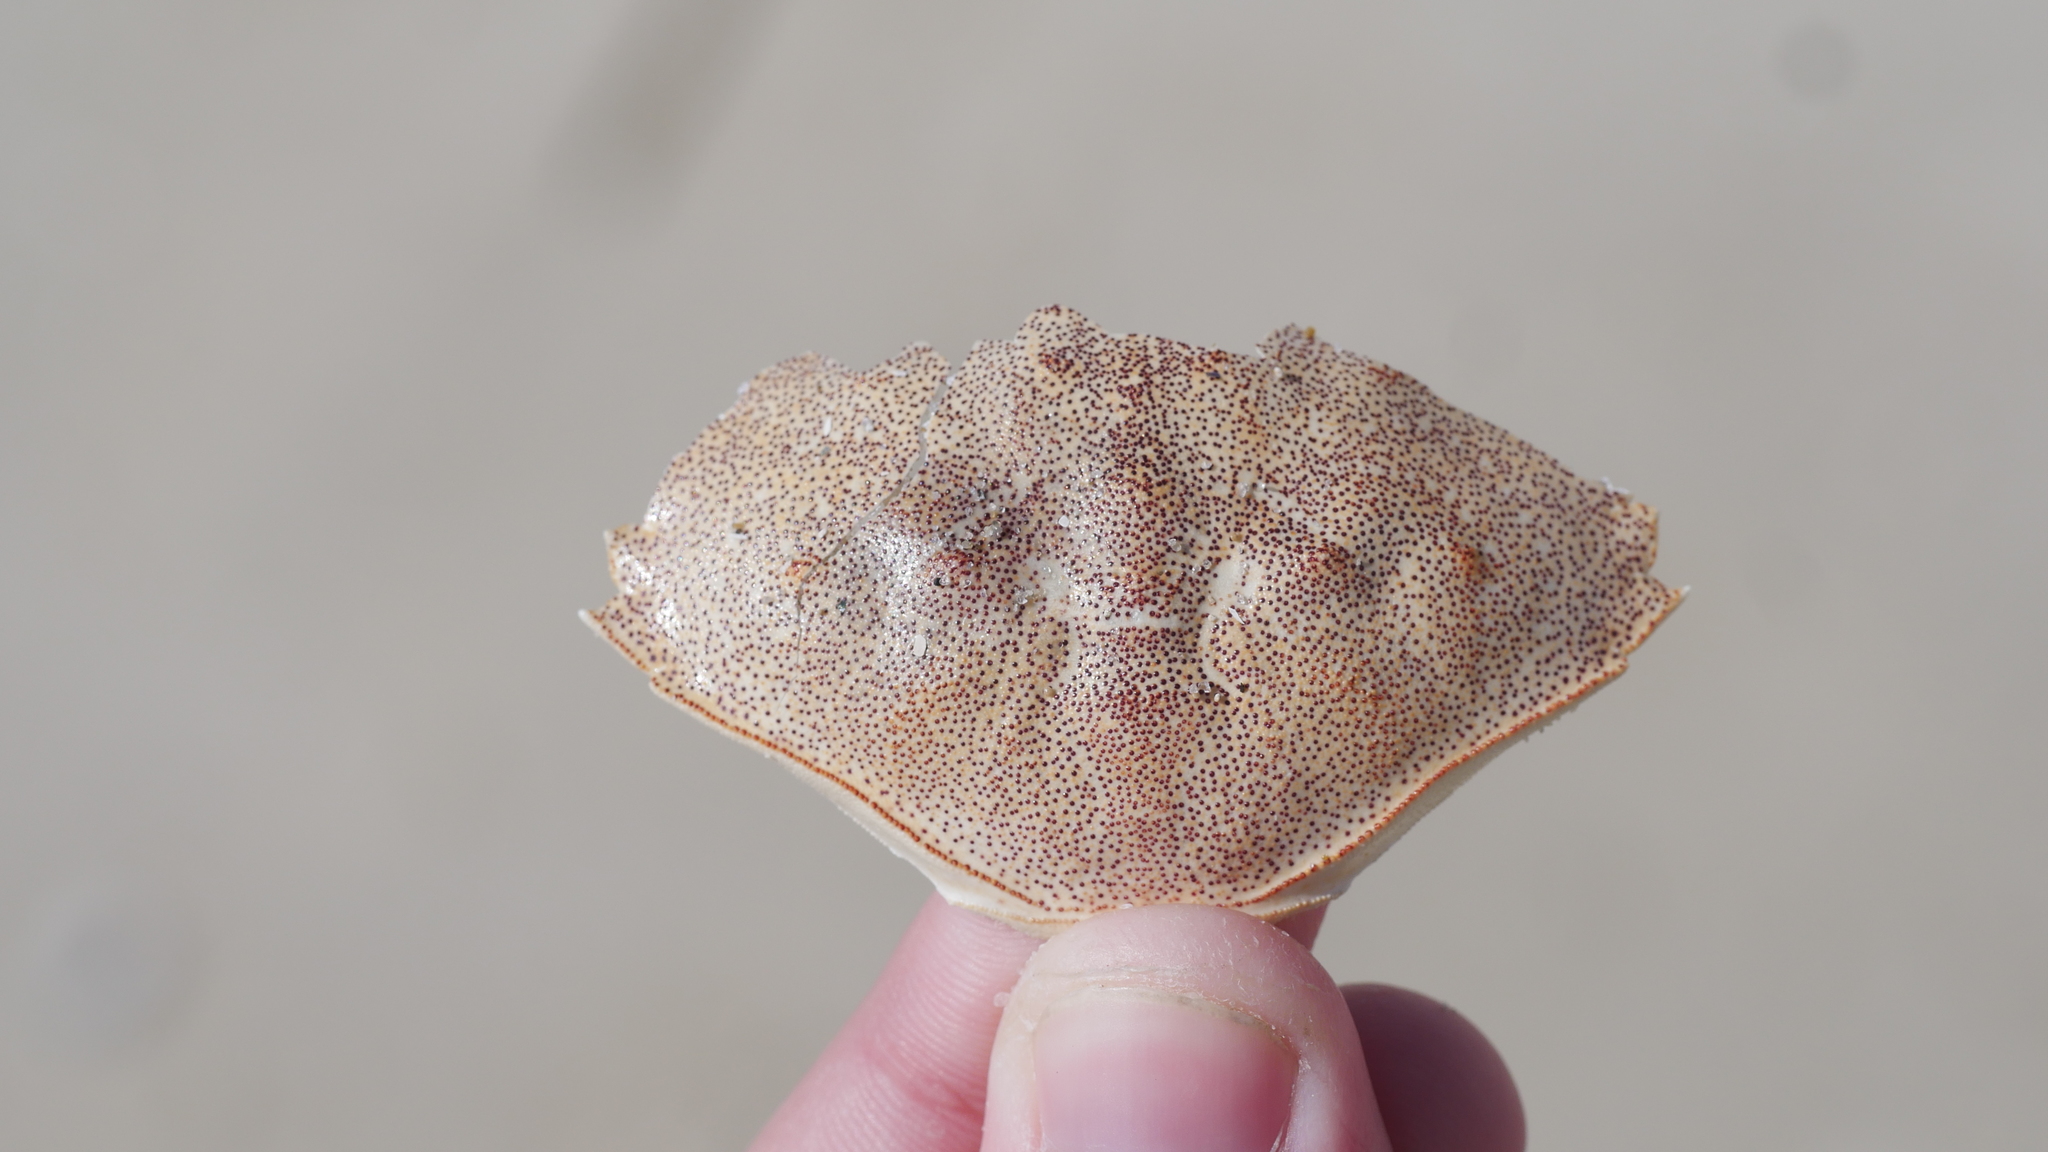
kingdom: Animalia
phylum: Arthropoda
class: Malacostraca
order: Decapoda
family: Cancridae
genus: Cancer
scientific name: Cancer irroratus
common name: Atlantic rock crab
